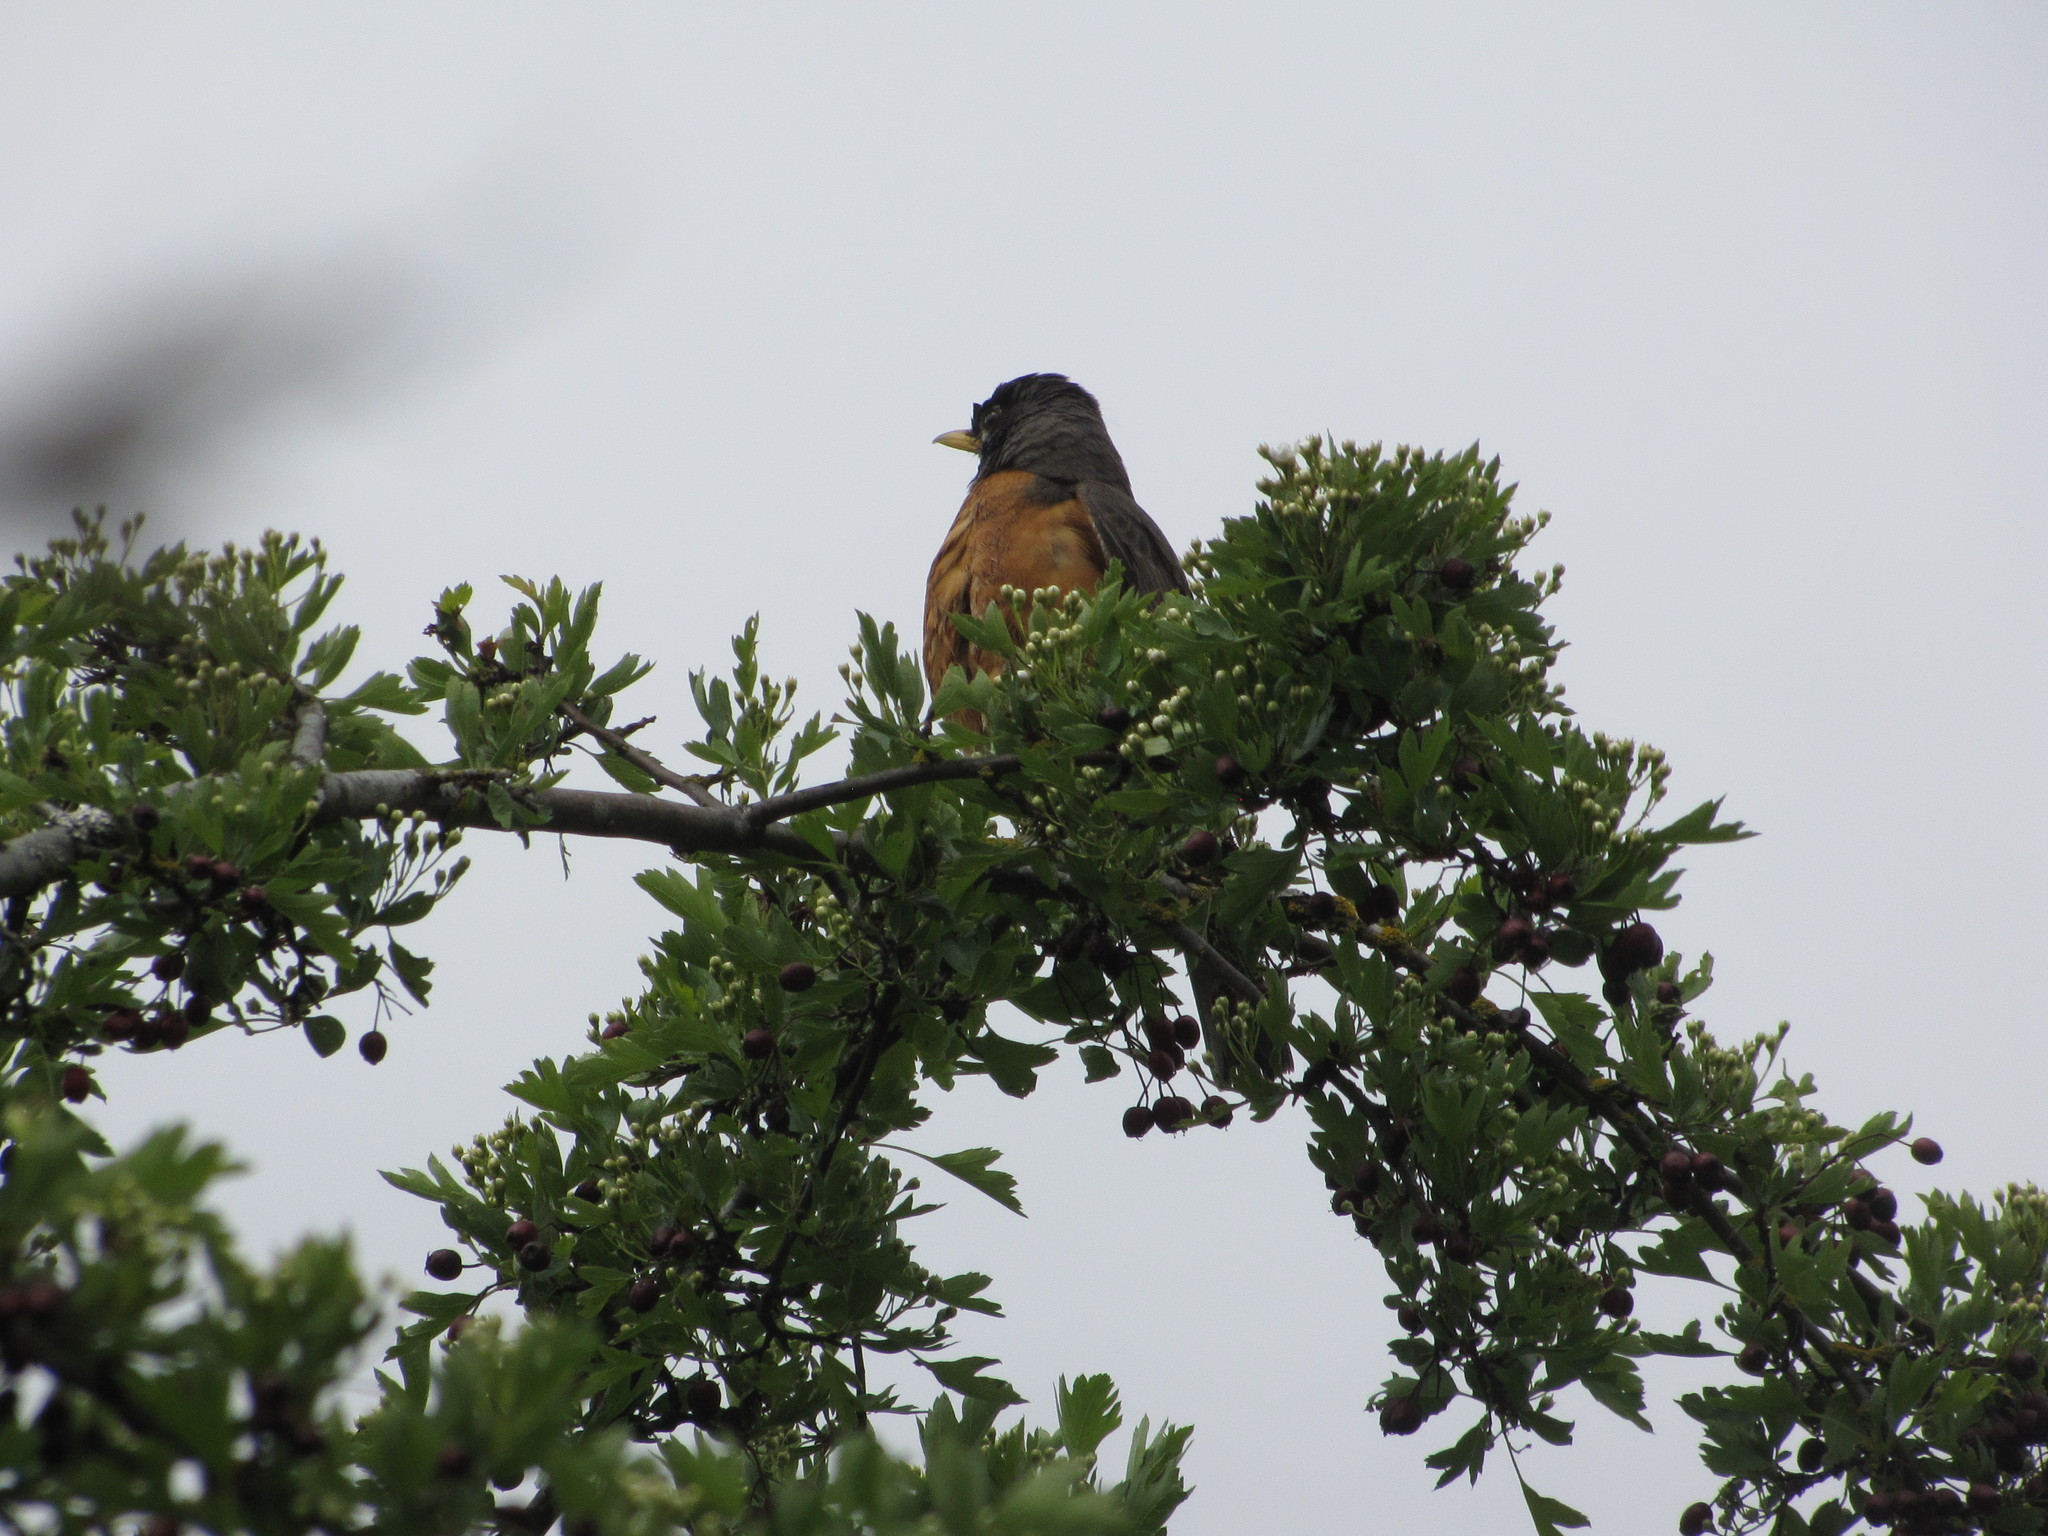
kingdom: Animalia
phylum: Chordata
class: Aves
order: Passeriformes
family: Turdidae
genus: Turdus
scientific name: Turdus migratorius
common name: American robin
